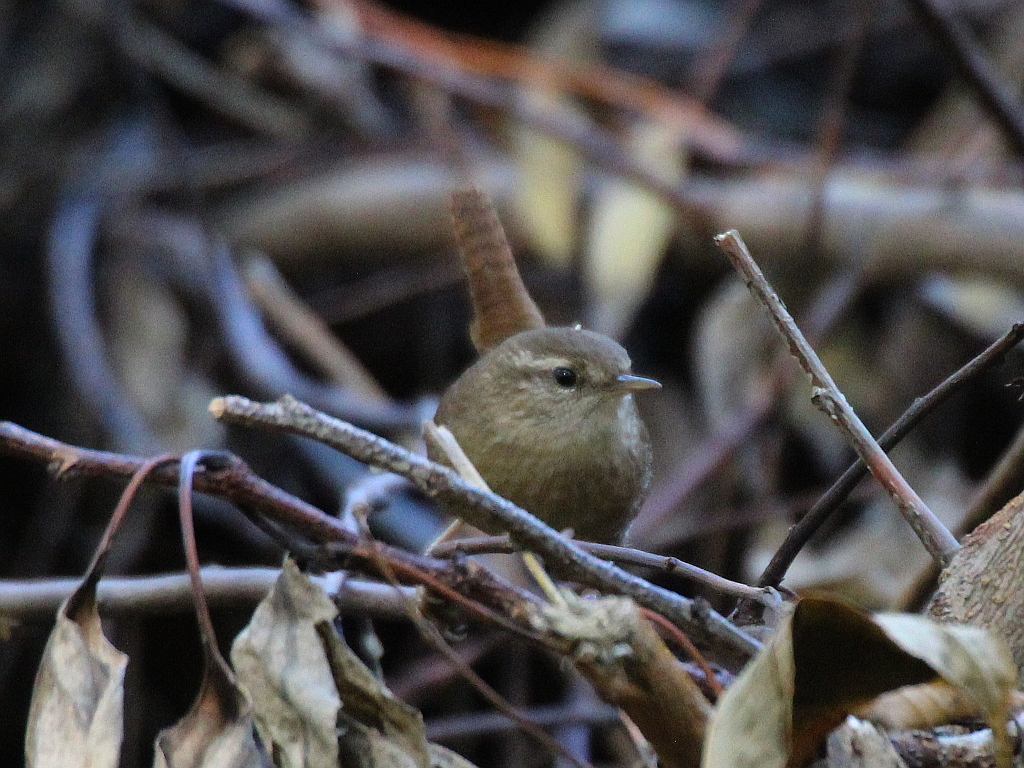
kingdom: Animalia
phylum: Chordata
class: Aves
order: Passeriformes
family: Troglodytidae
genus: Troglodytes
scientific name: Troglodytes troglodytes
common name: Eurasian wren
